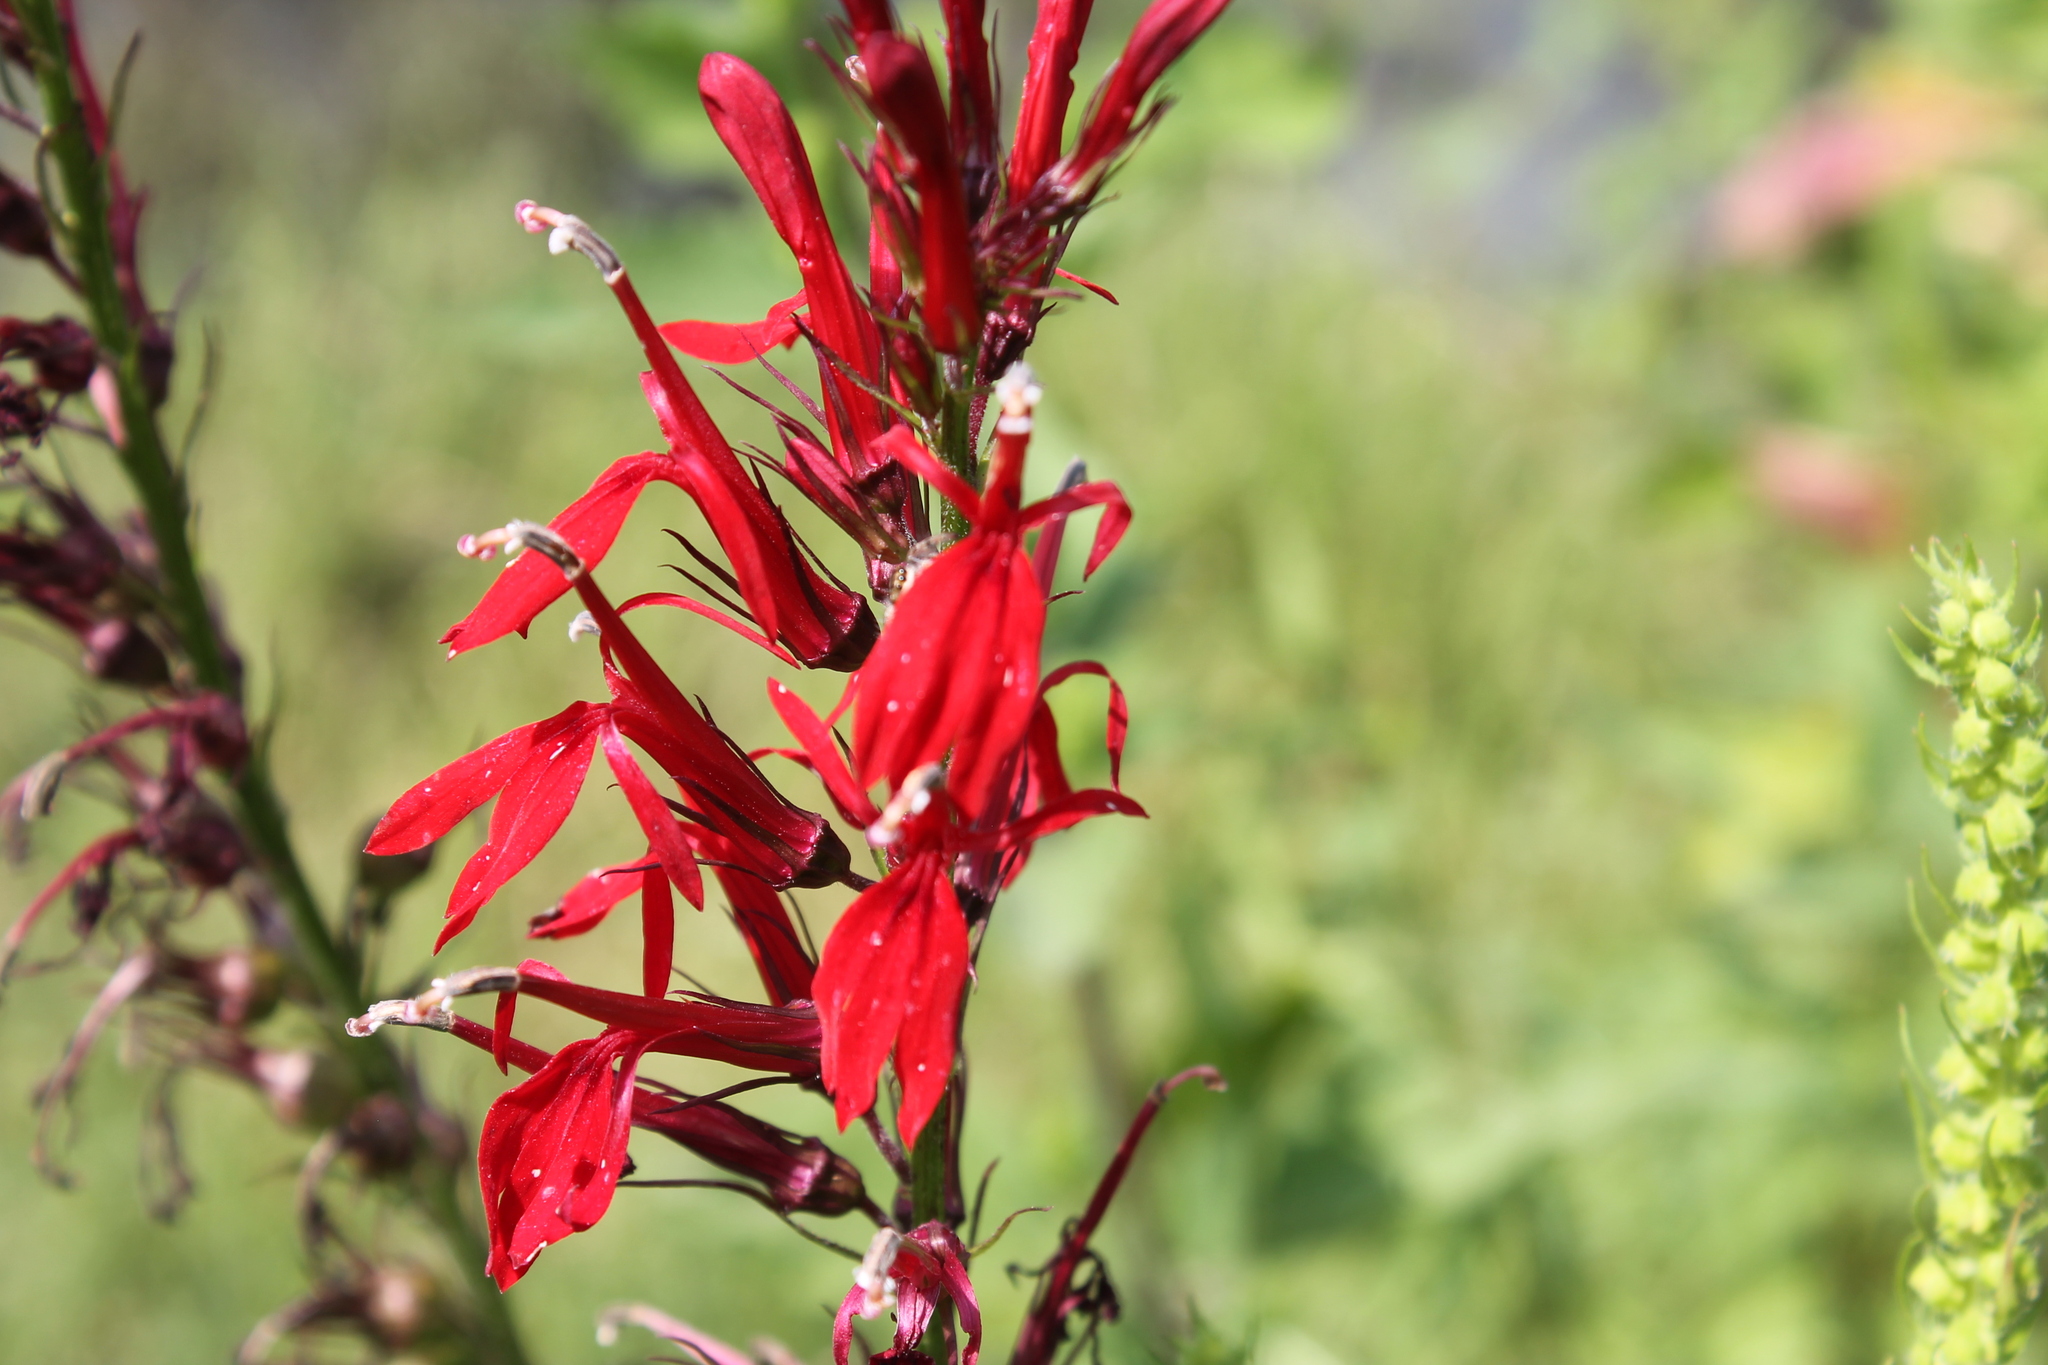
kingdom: Plantae
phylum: Tracheophyta
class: Magnoliopsida
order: Asterales
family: Campanulaceae
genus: Lobelia
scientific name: Lobelia cardinalis
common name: Cardinal flower
